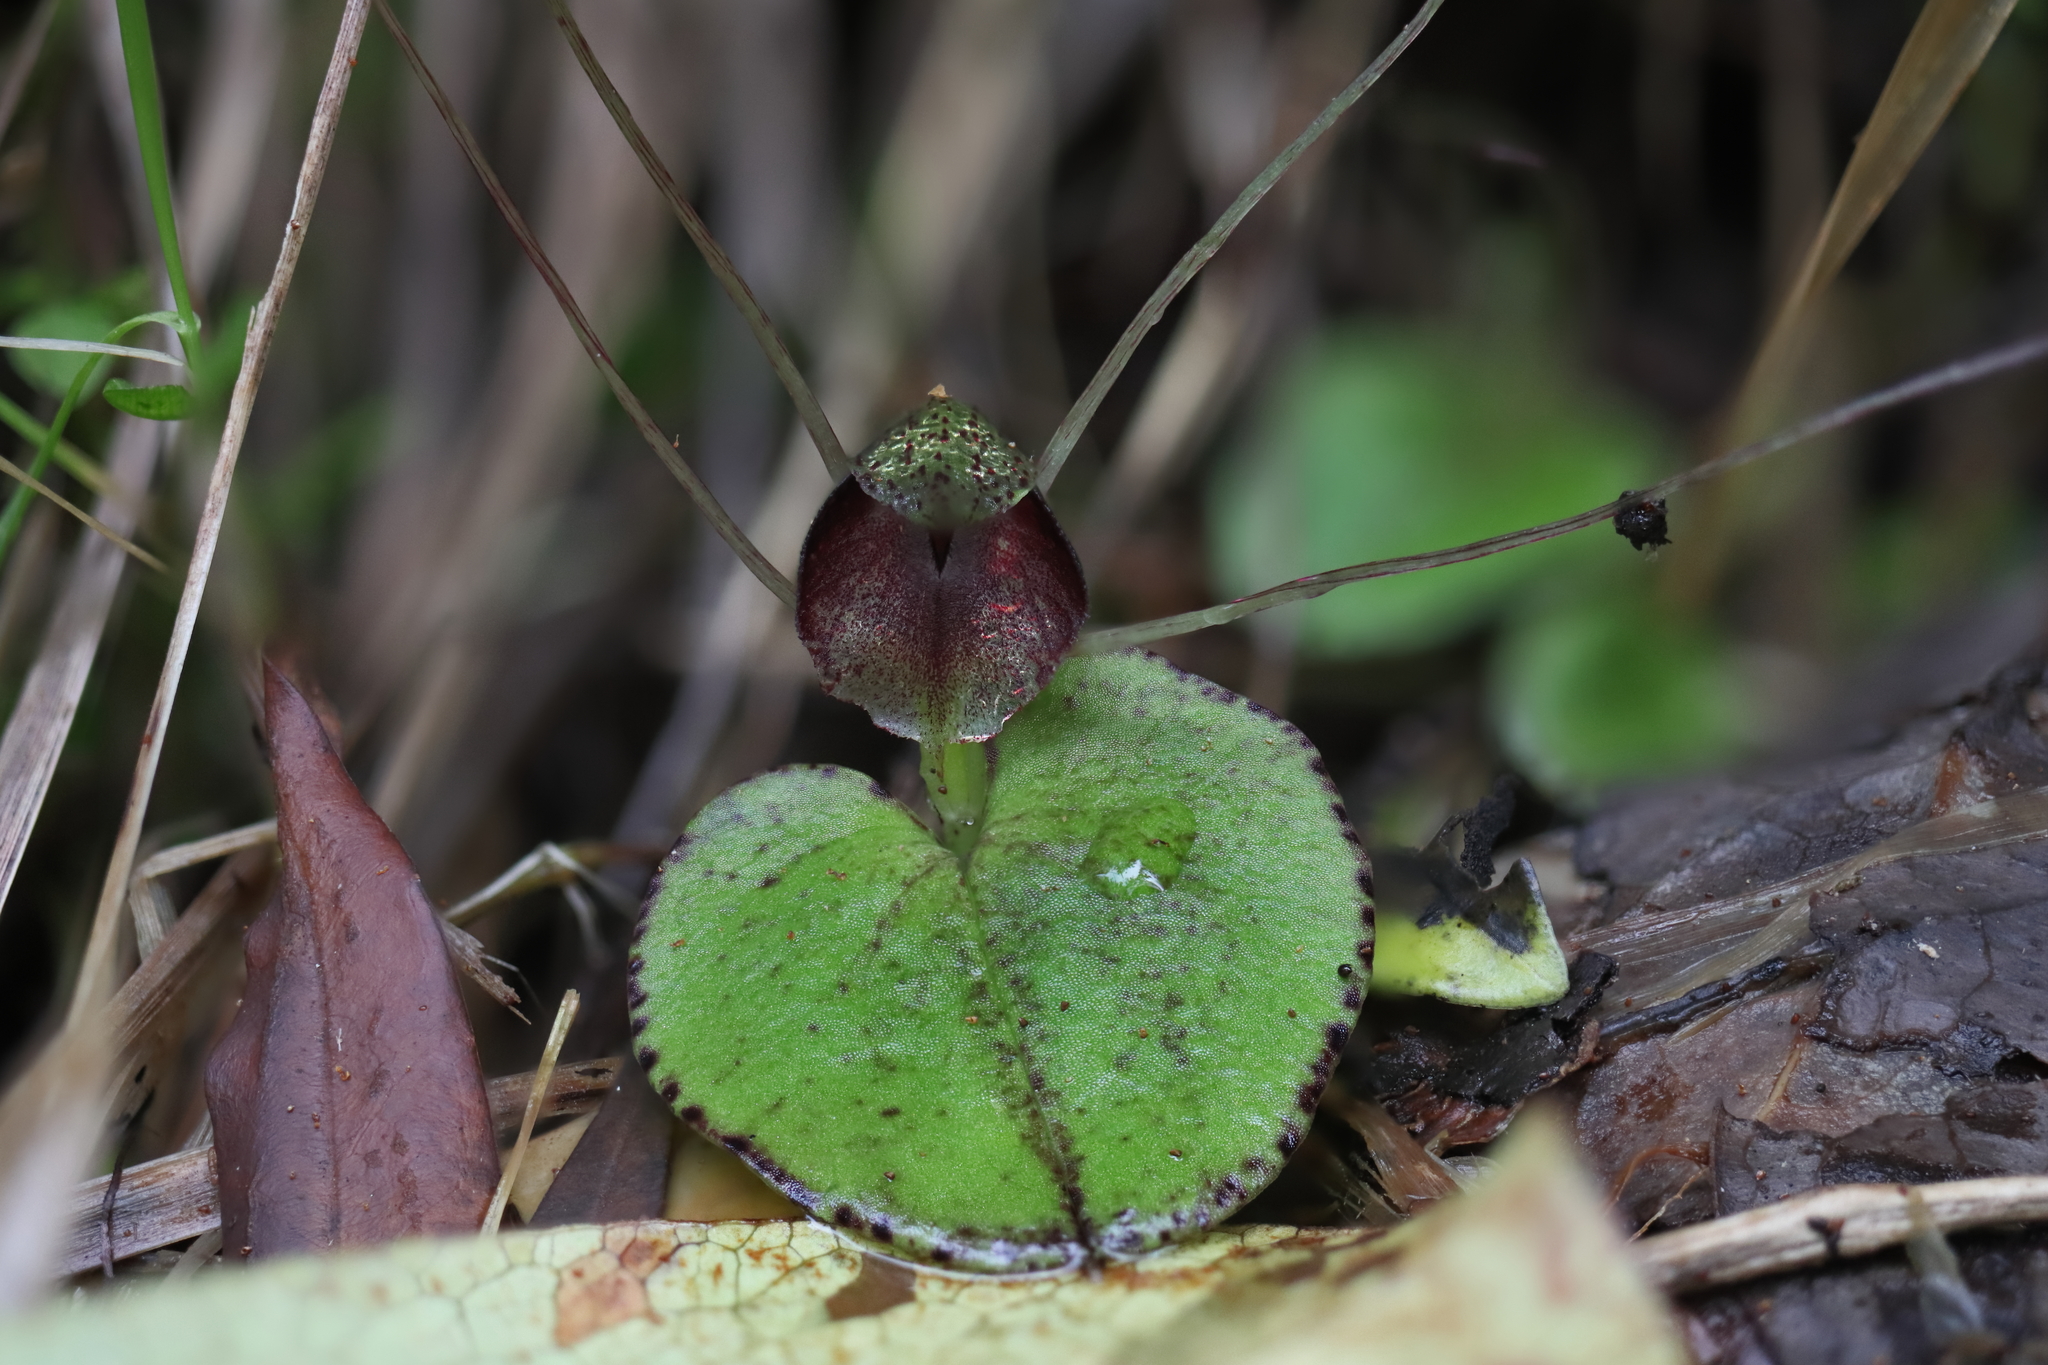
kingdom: Plantae
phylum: Tracheophyta
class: Liliopsida
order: Asparagales
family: Orchidaceae
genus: Corybas
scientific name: Corybas hatchii
